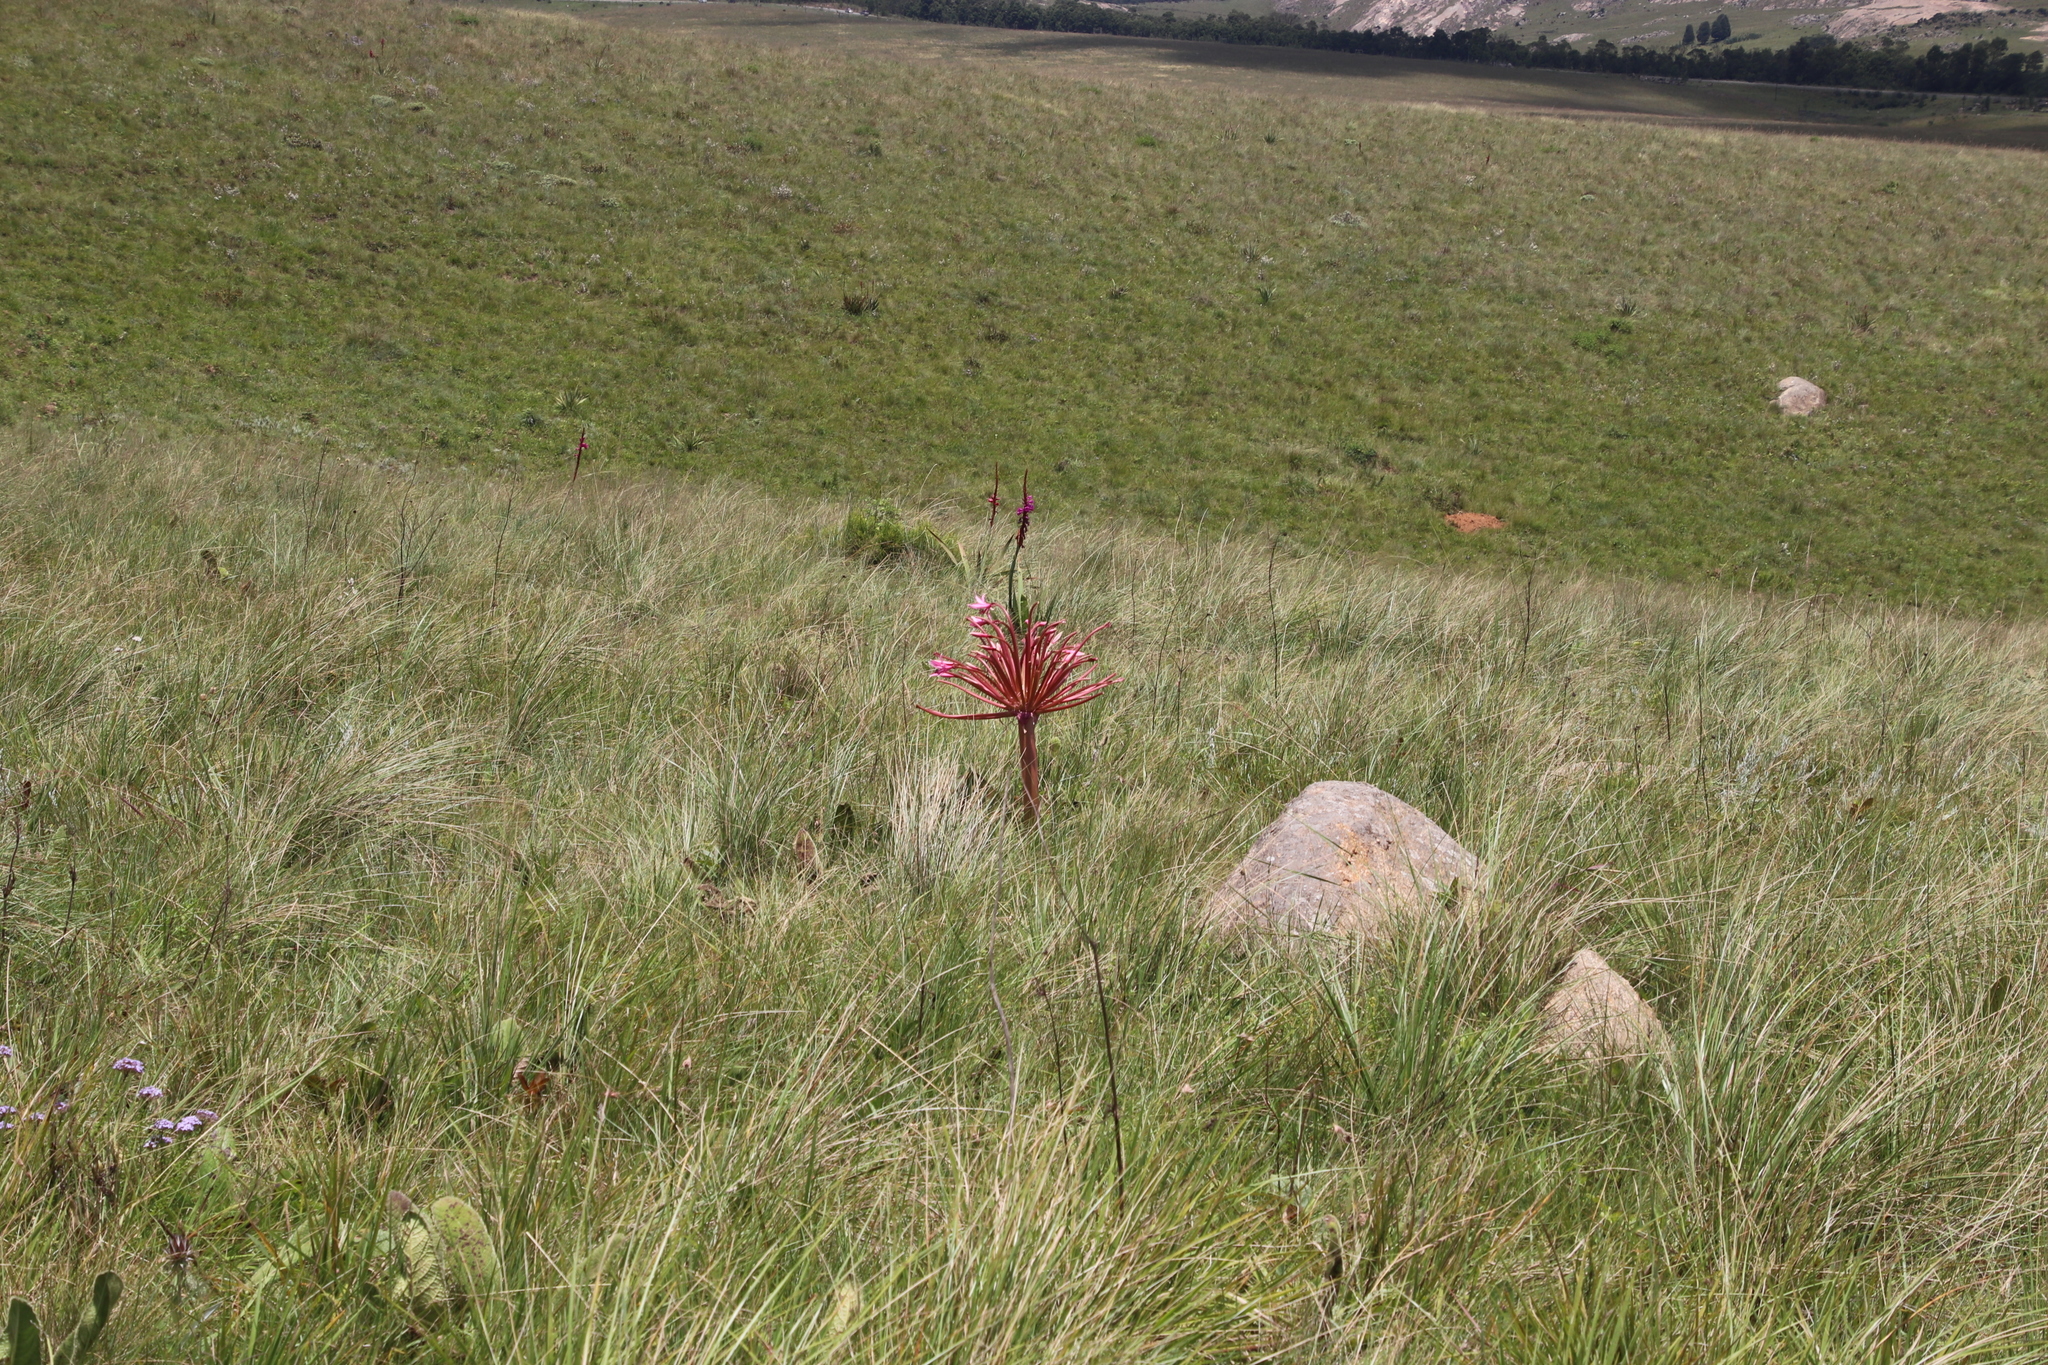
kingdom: Plantae
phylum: Tracheophyta
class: Liliopsida
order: Asparagales
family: Amaryllidaceae
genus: Brunsvigia
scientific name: Brunsvigia radulosa
